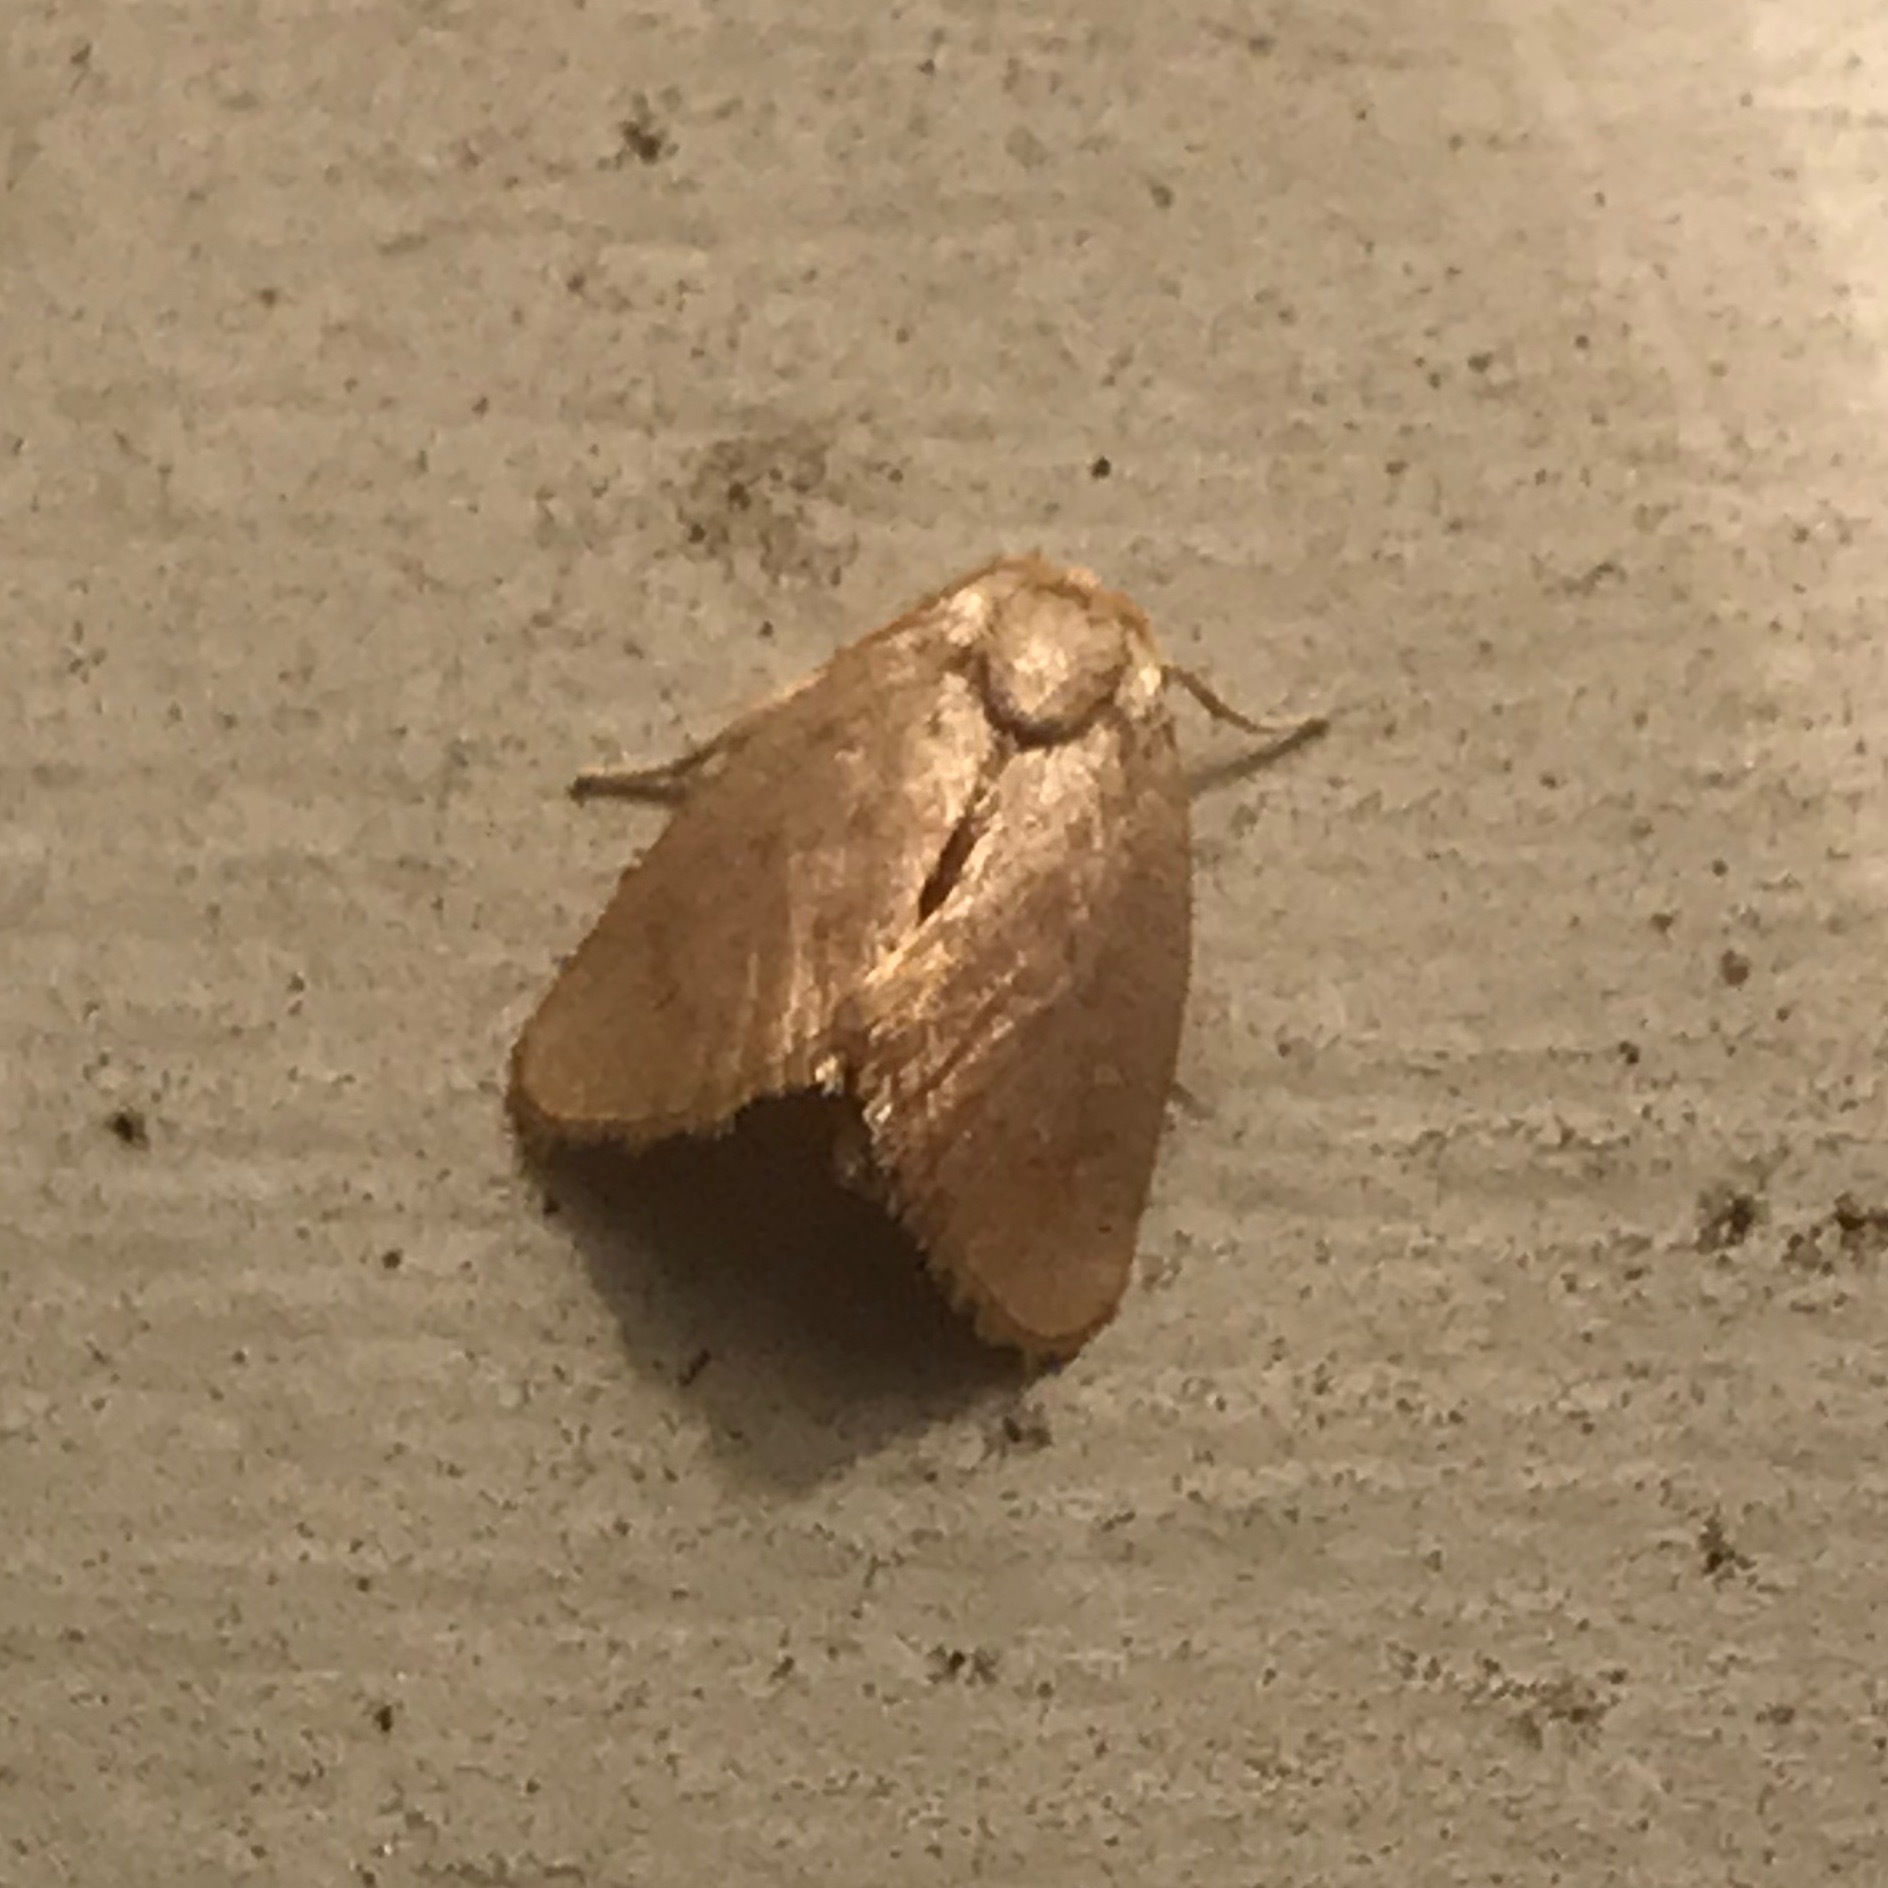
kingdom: Animalia
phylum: Arthropoda
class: Insecta
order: Lepidoptera
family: Limacodidae
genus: Tortricidia
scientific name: Tortricidia pallida
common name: Red-crossed button slug moth
